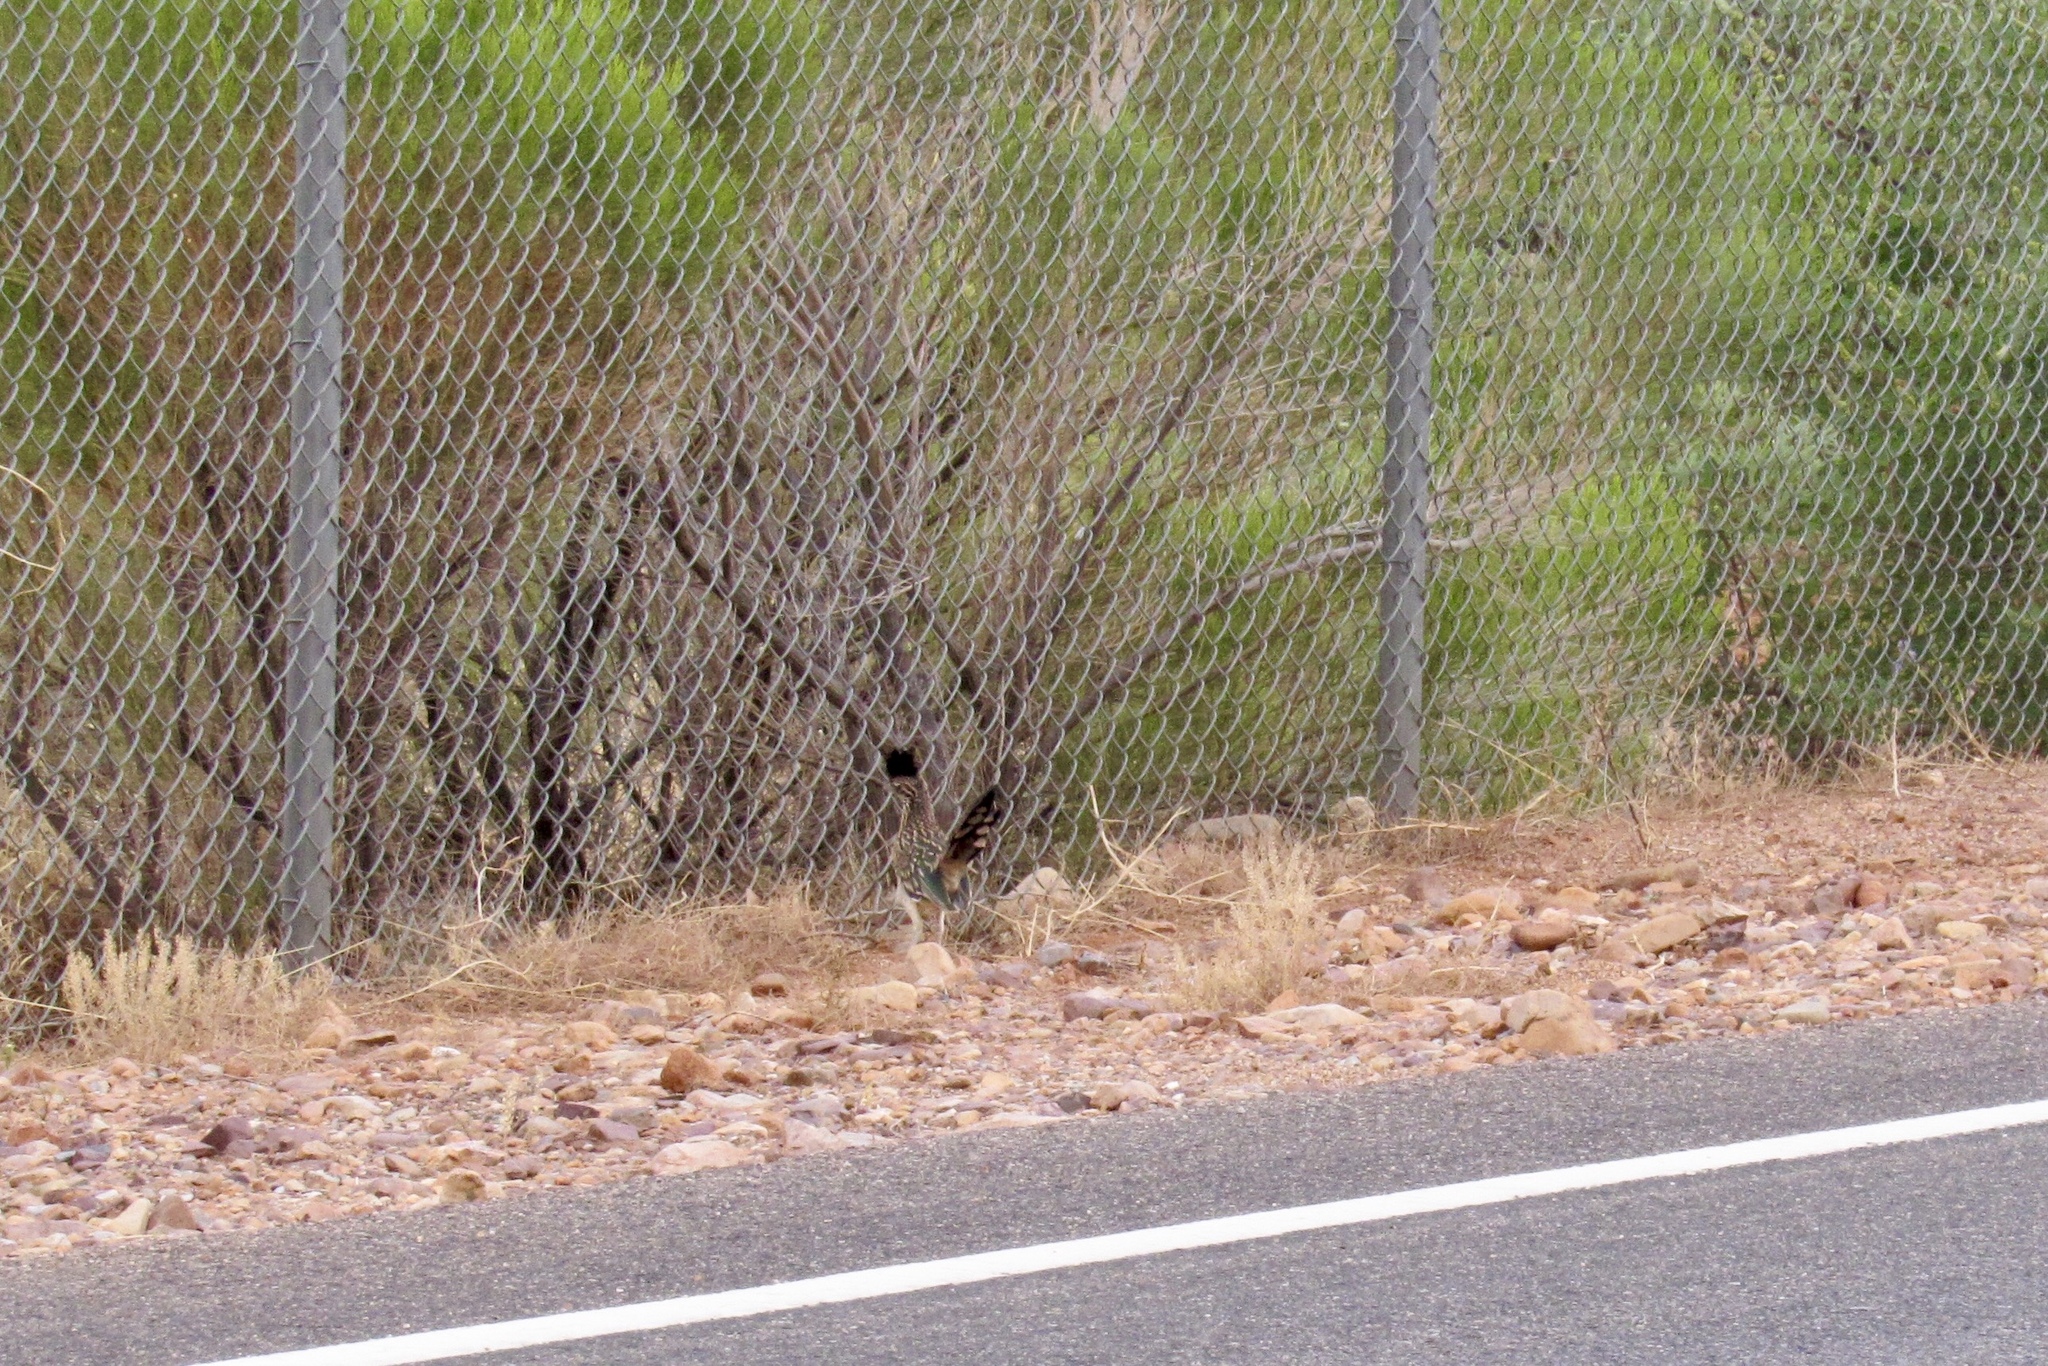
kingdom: Animalia
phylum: Chordata
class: Aves
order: Cuculiformes
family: Cuculidae
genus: Geococcyx
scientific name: Geococcyx californianus
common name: Greater roadrunner
